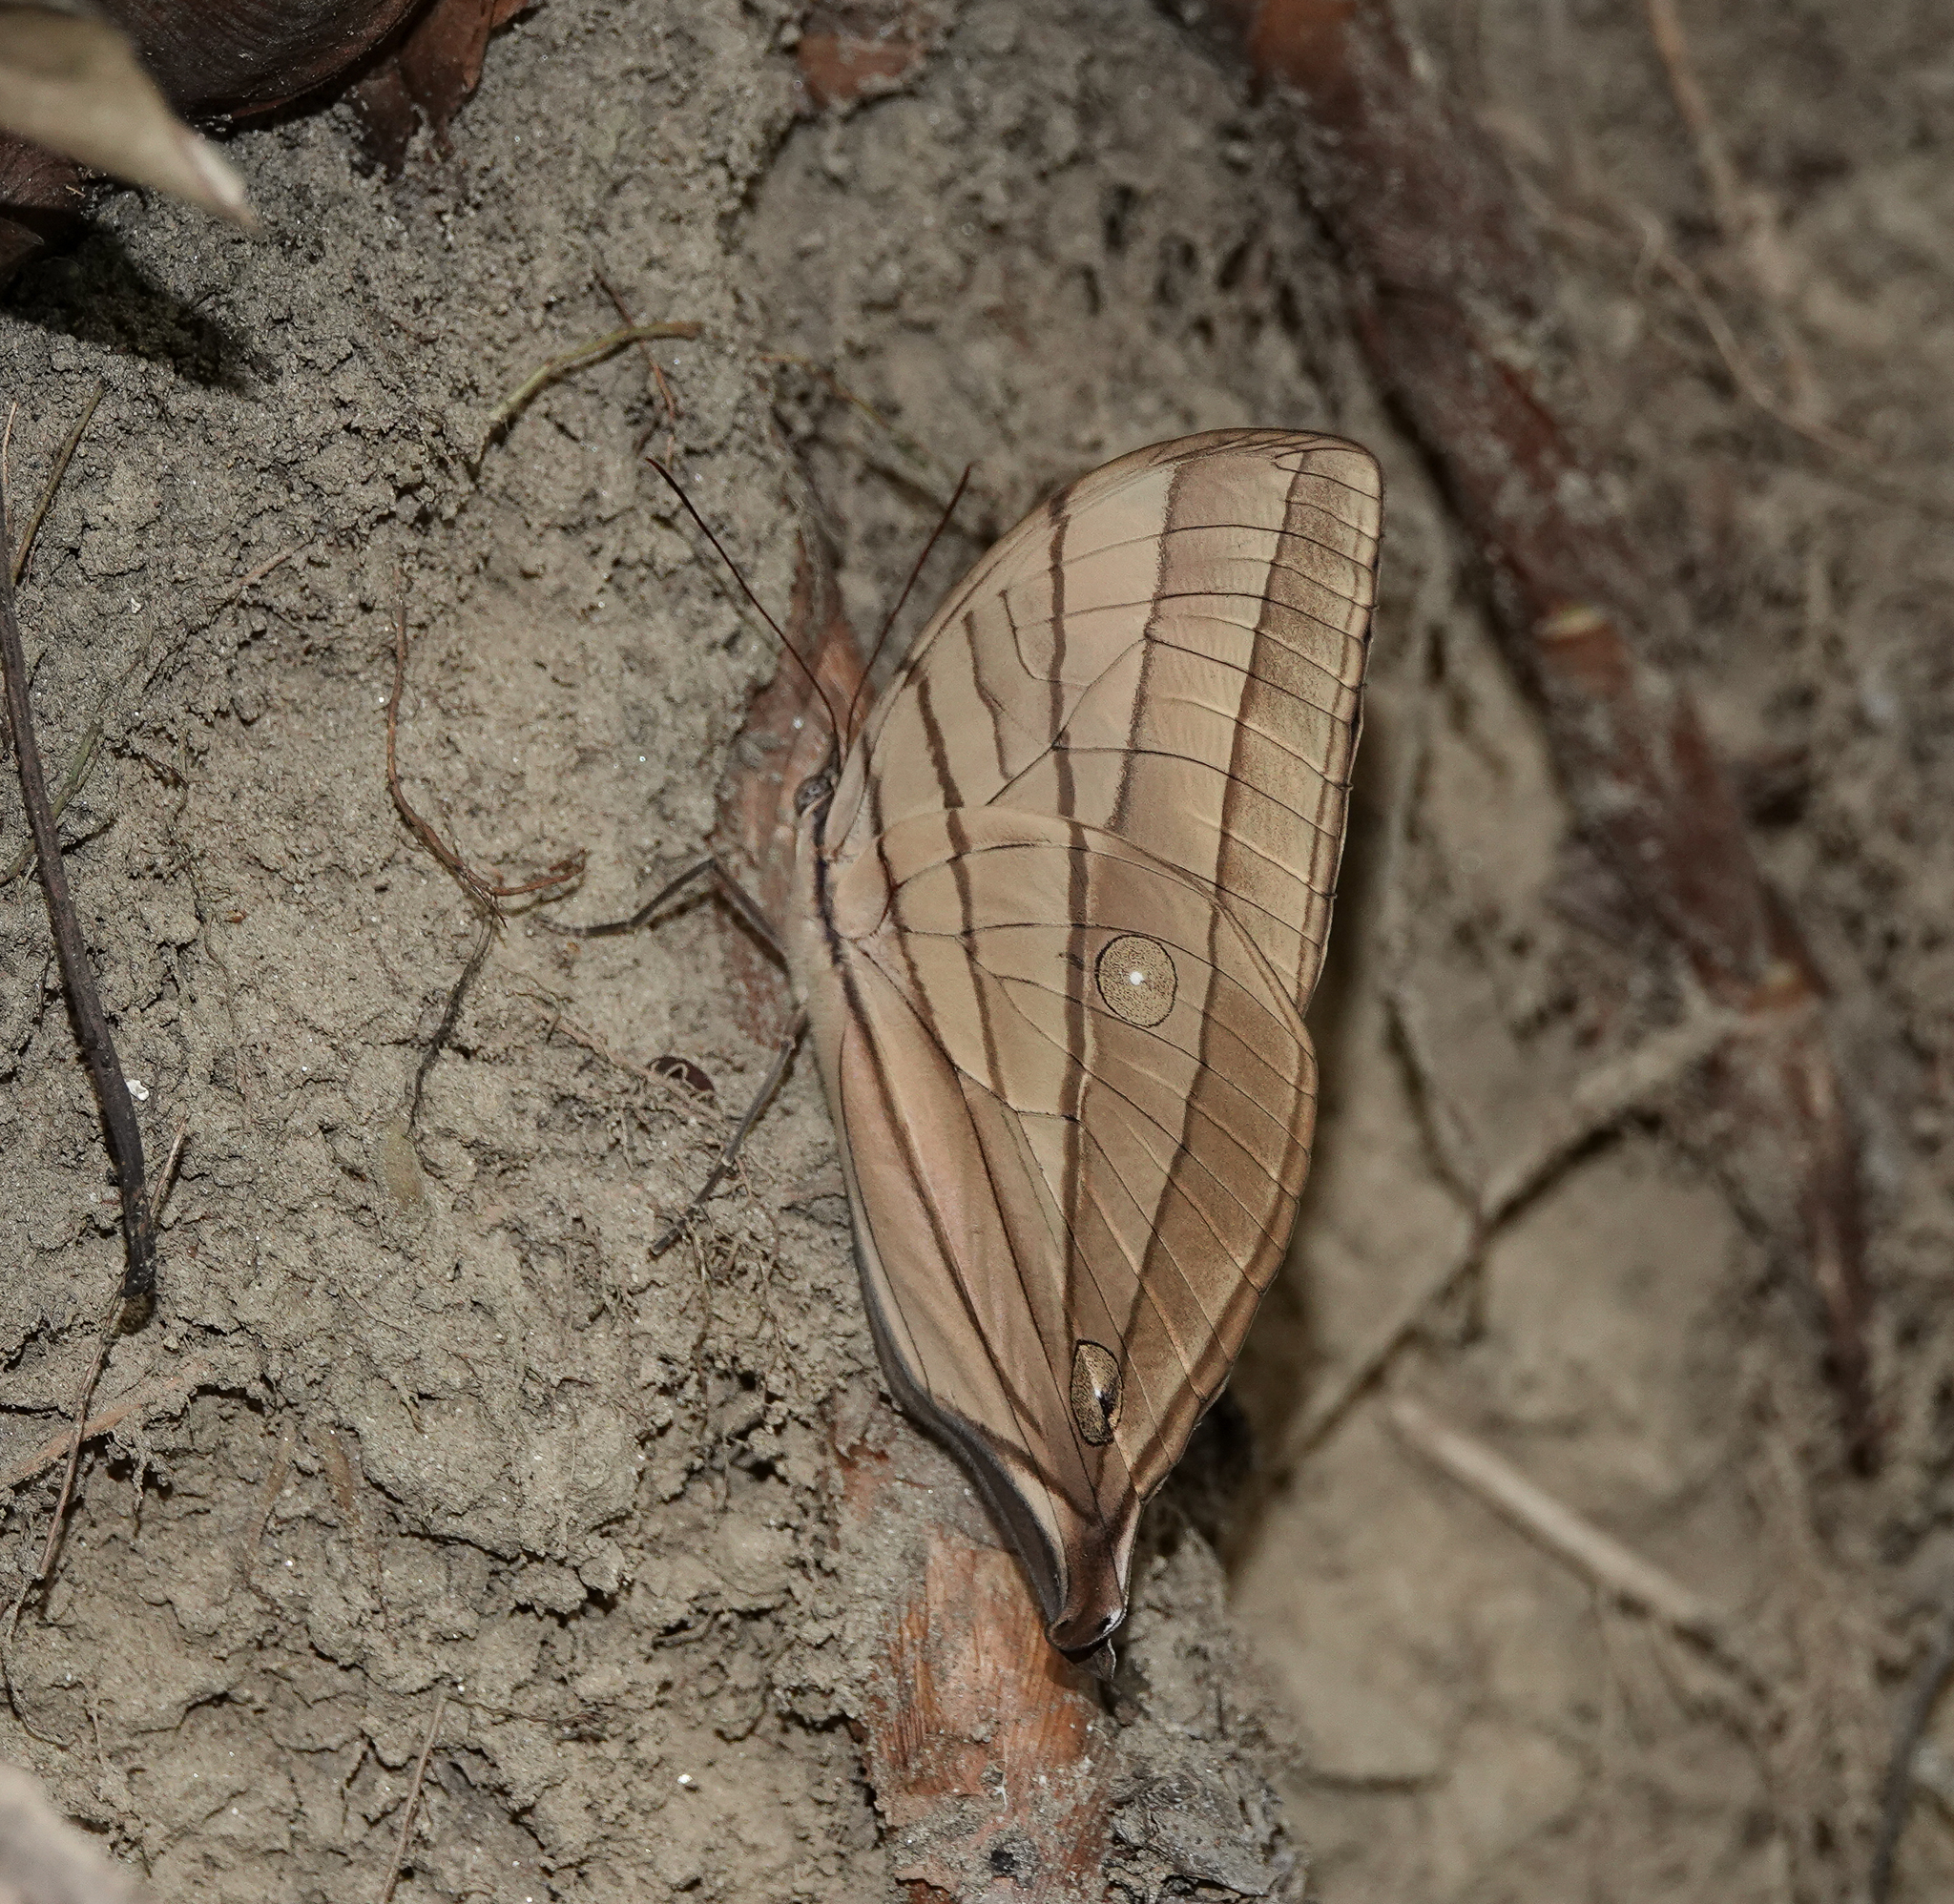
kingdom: Animalia
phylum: Arthropoda
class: Insecta
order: Lepidoptera
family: Nymphalidae
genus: Amathuxidia
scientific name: Amathuxidia amythaon
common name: Koh-i-noor
